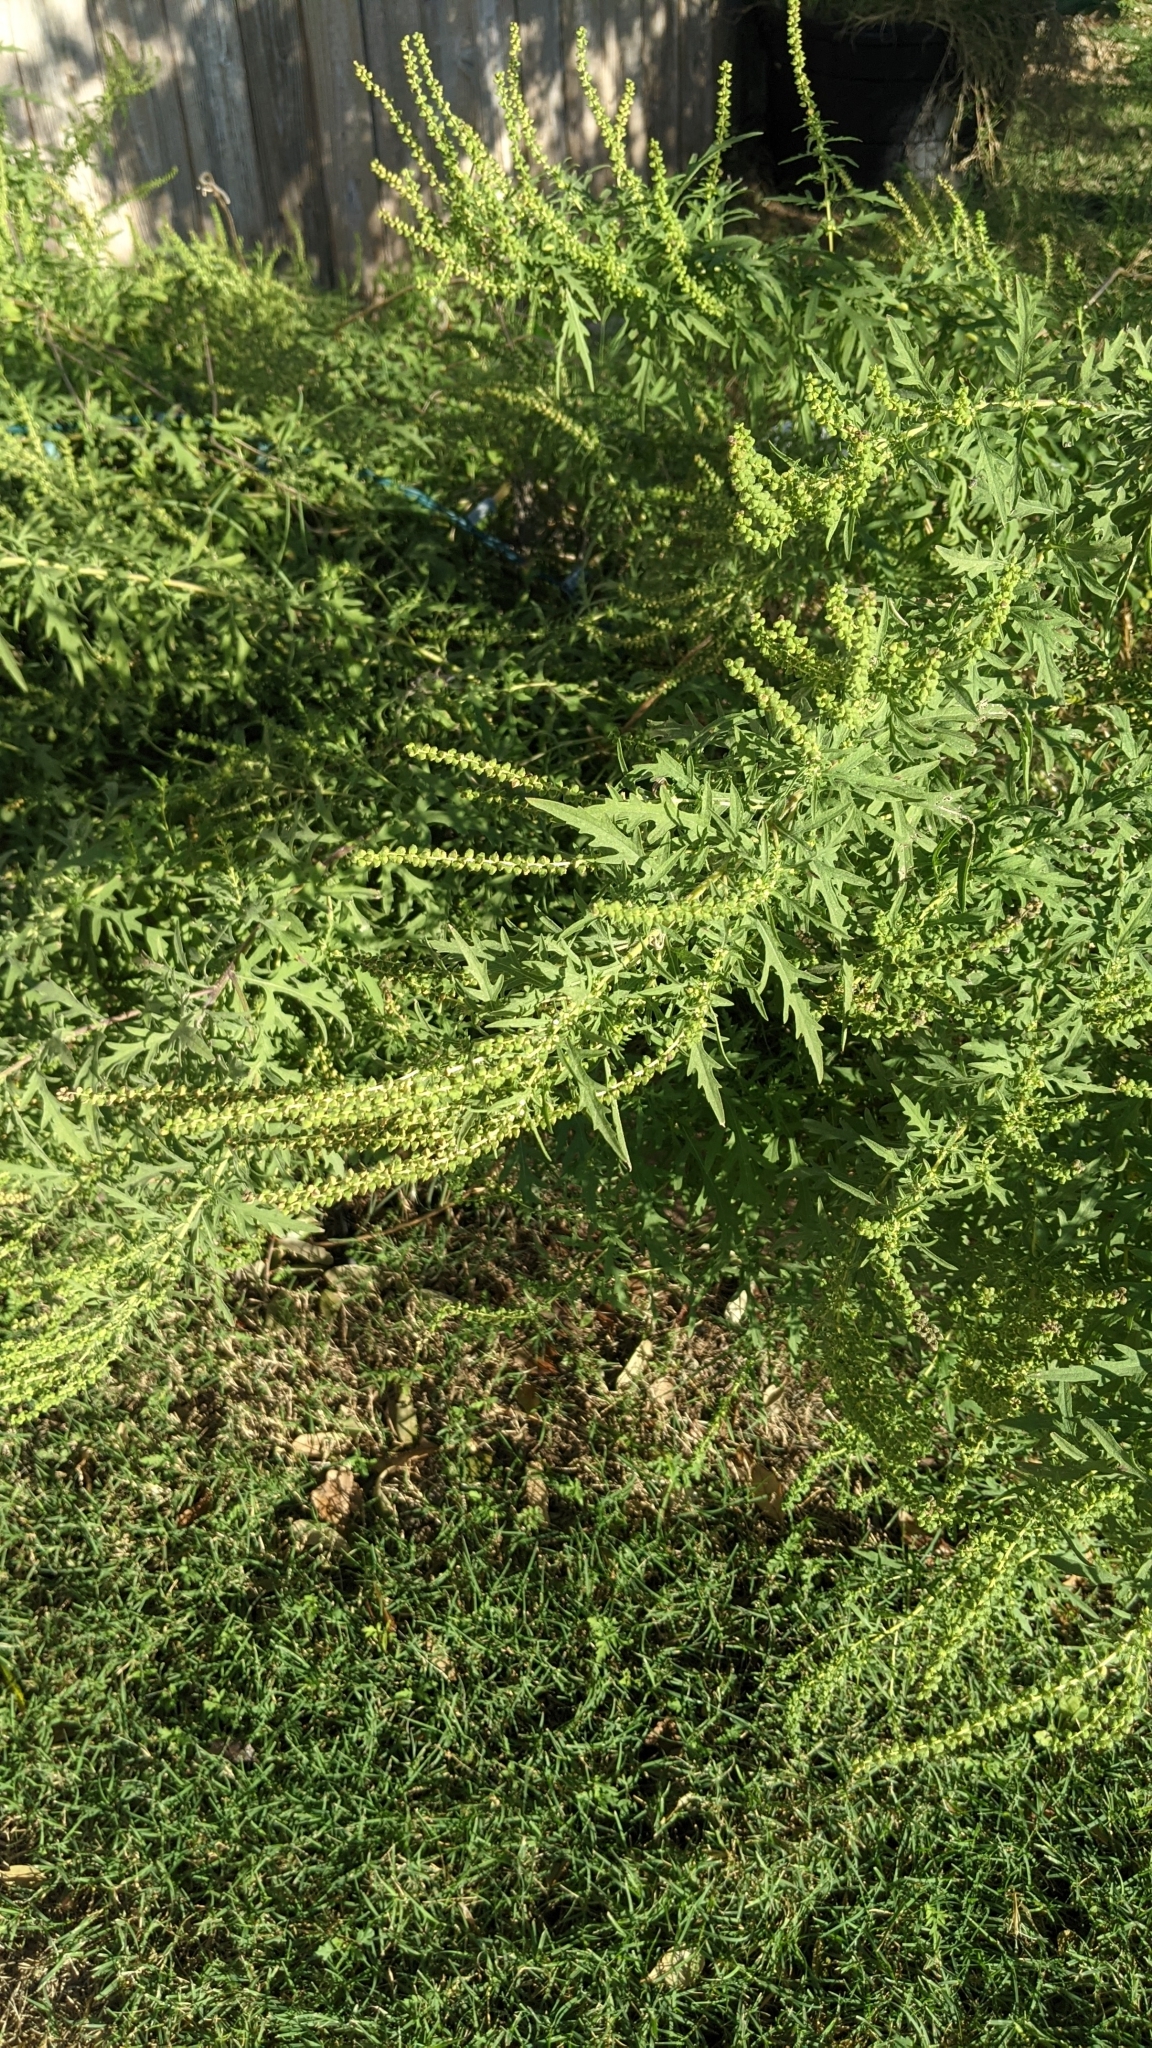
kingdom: Plantae
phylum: Tracheophyta
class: Magnoliopsida
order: Asterales
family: Asteraceae
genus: Ambrosia
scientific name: Ambrosia psilostachya
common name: Perennial ragweed
